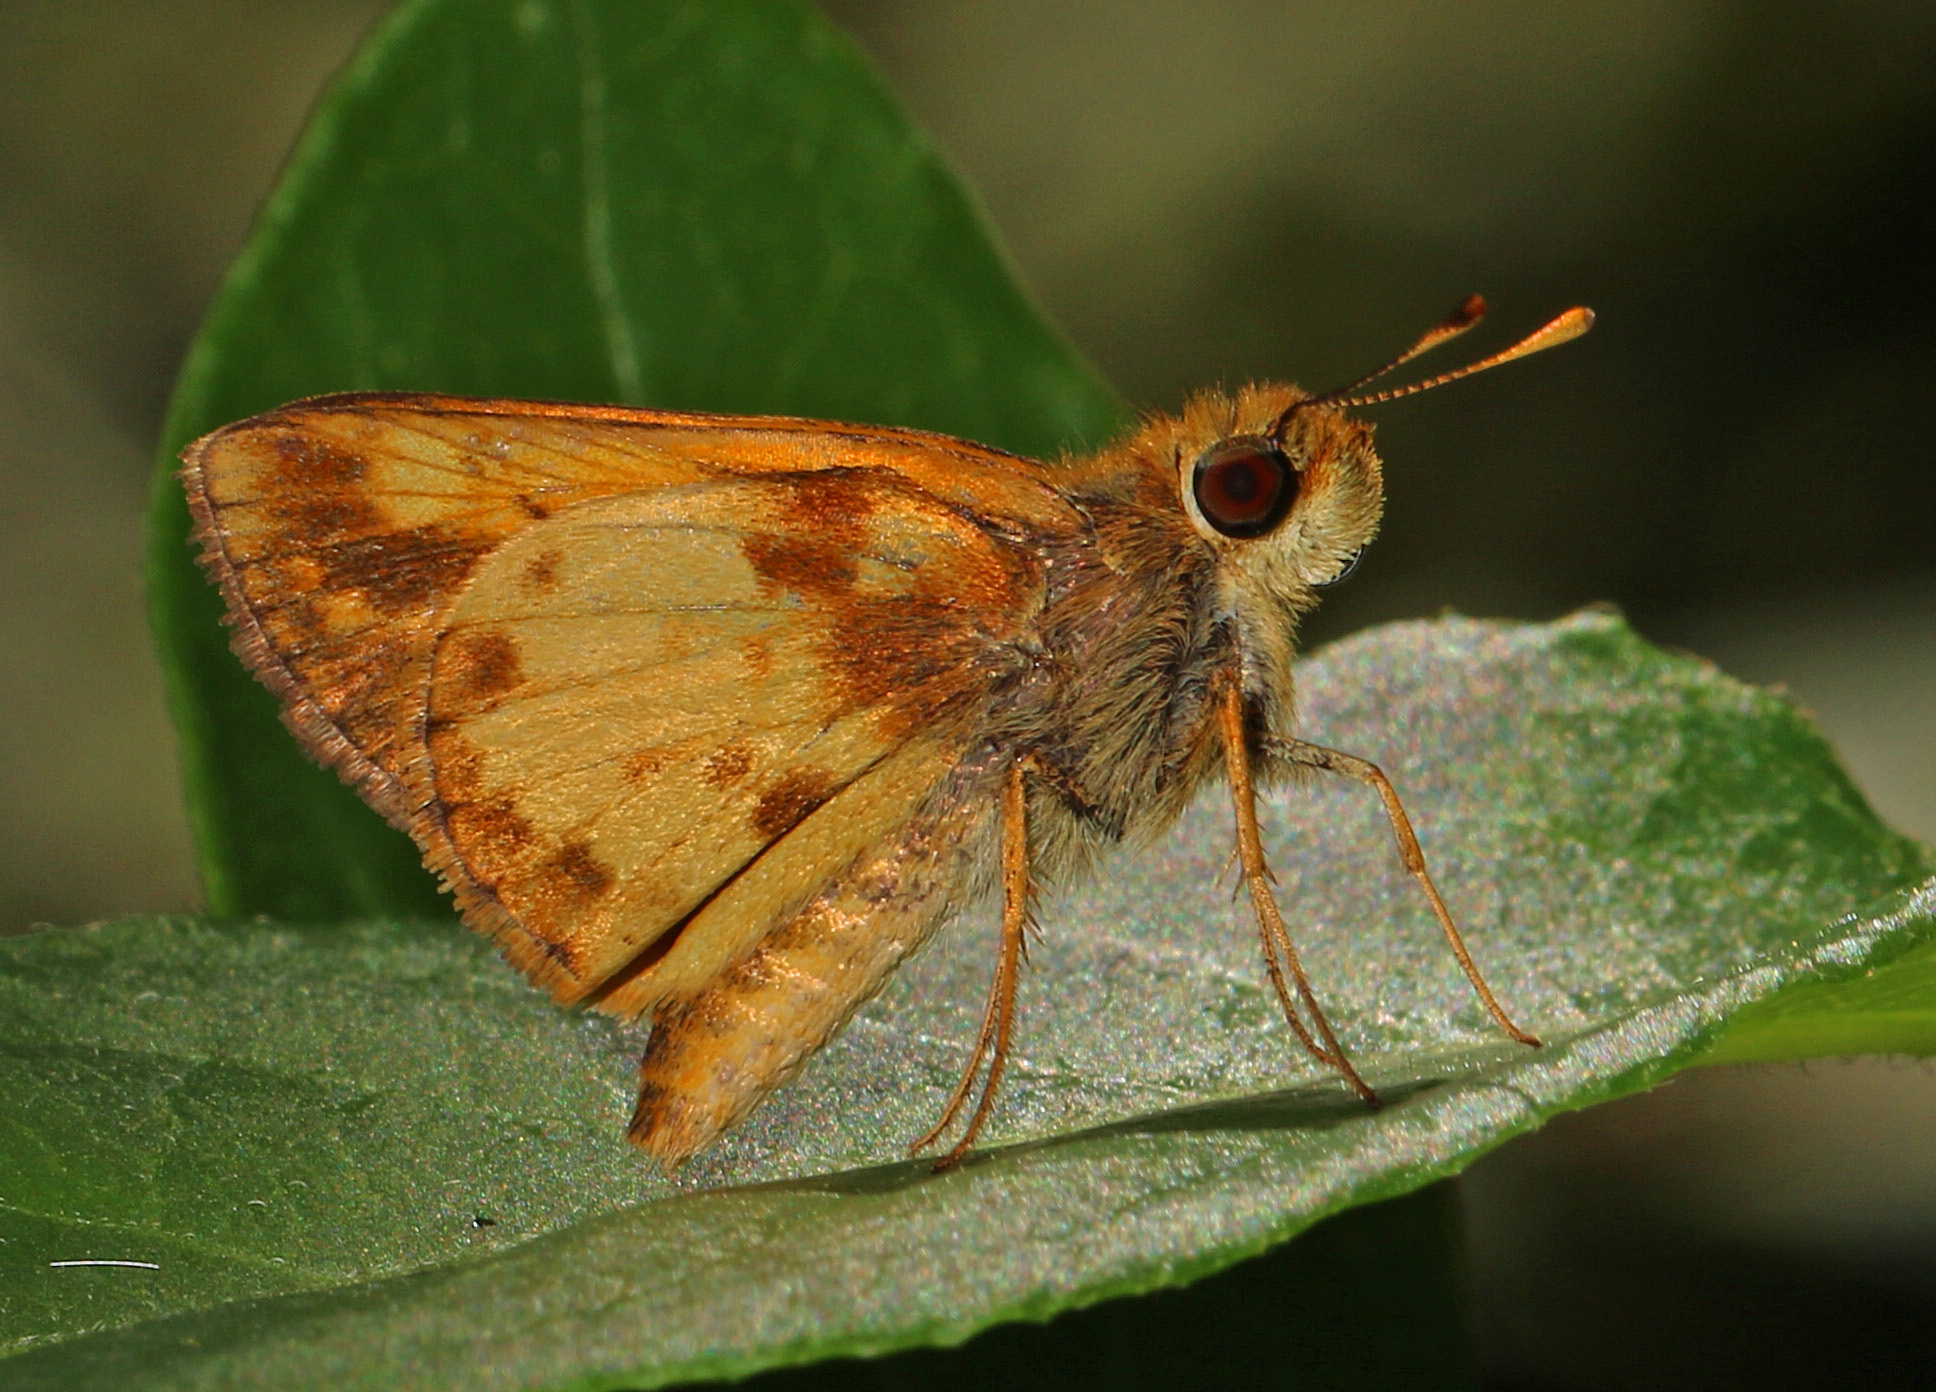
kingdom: Animalia
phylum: Arthropoda
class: Insecta
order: Lepidoptera
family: Hesperiidae
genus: Lon
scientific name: Lon zabulon
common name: Zabulon skipper
